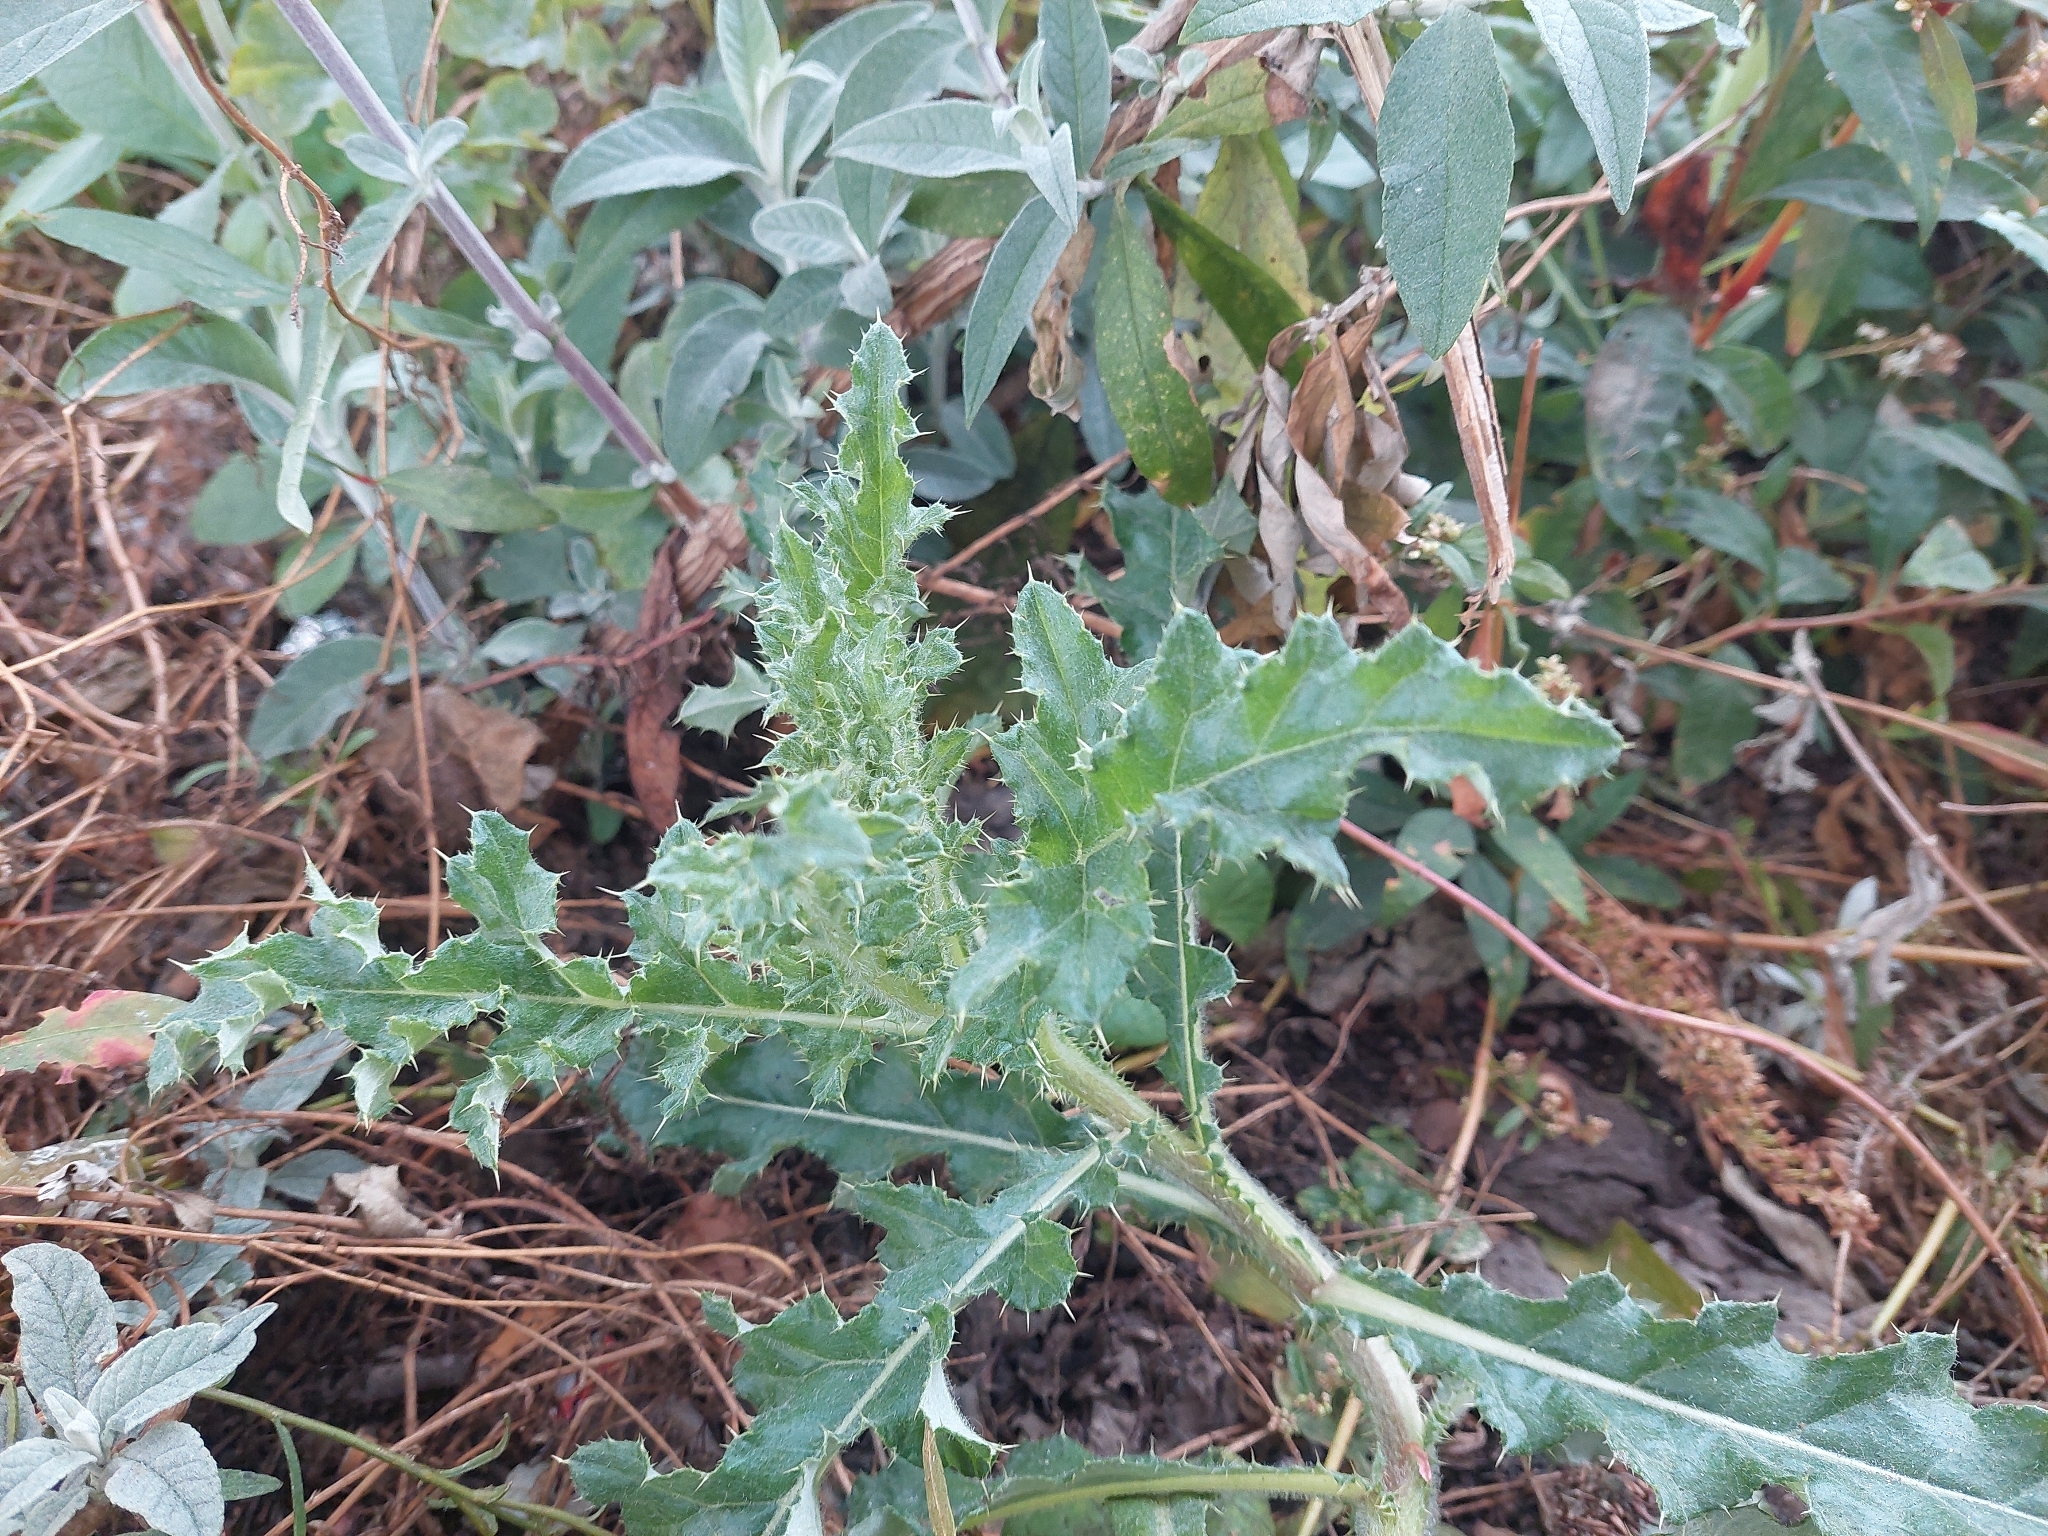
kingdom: Plantae
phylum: Tracheophyta
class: Magnoliopsida
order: Asterales
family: Asteraceae
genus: Cirsium
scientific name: Cirsium arvense
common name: Creeping thistle
